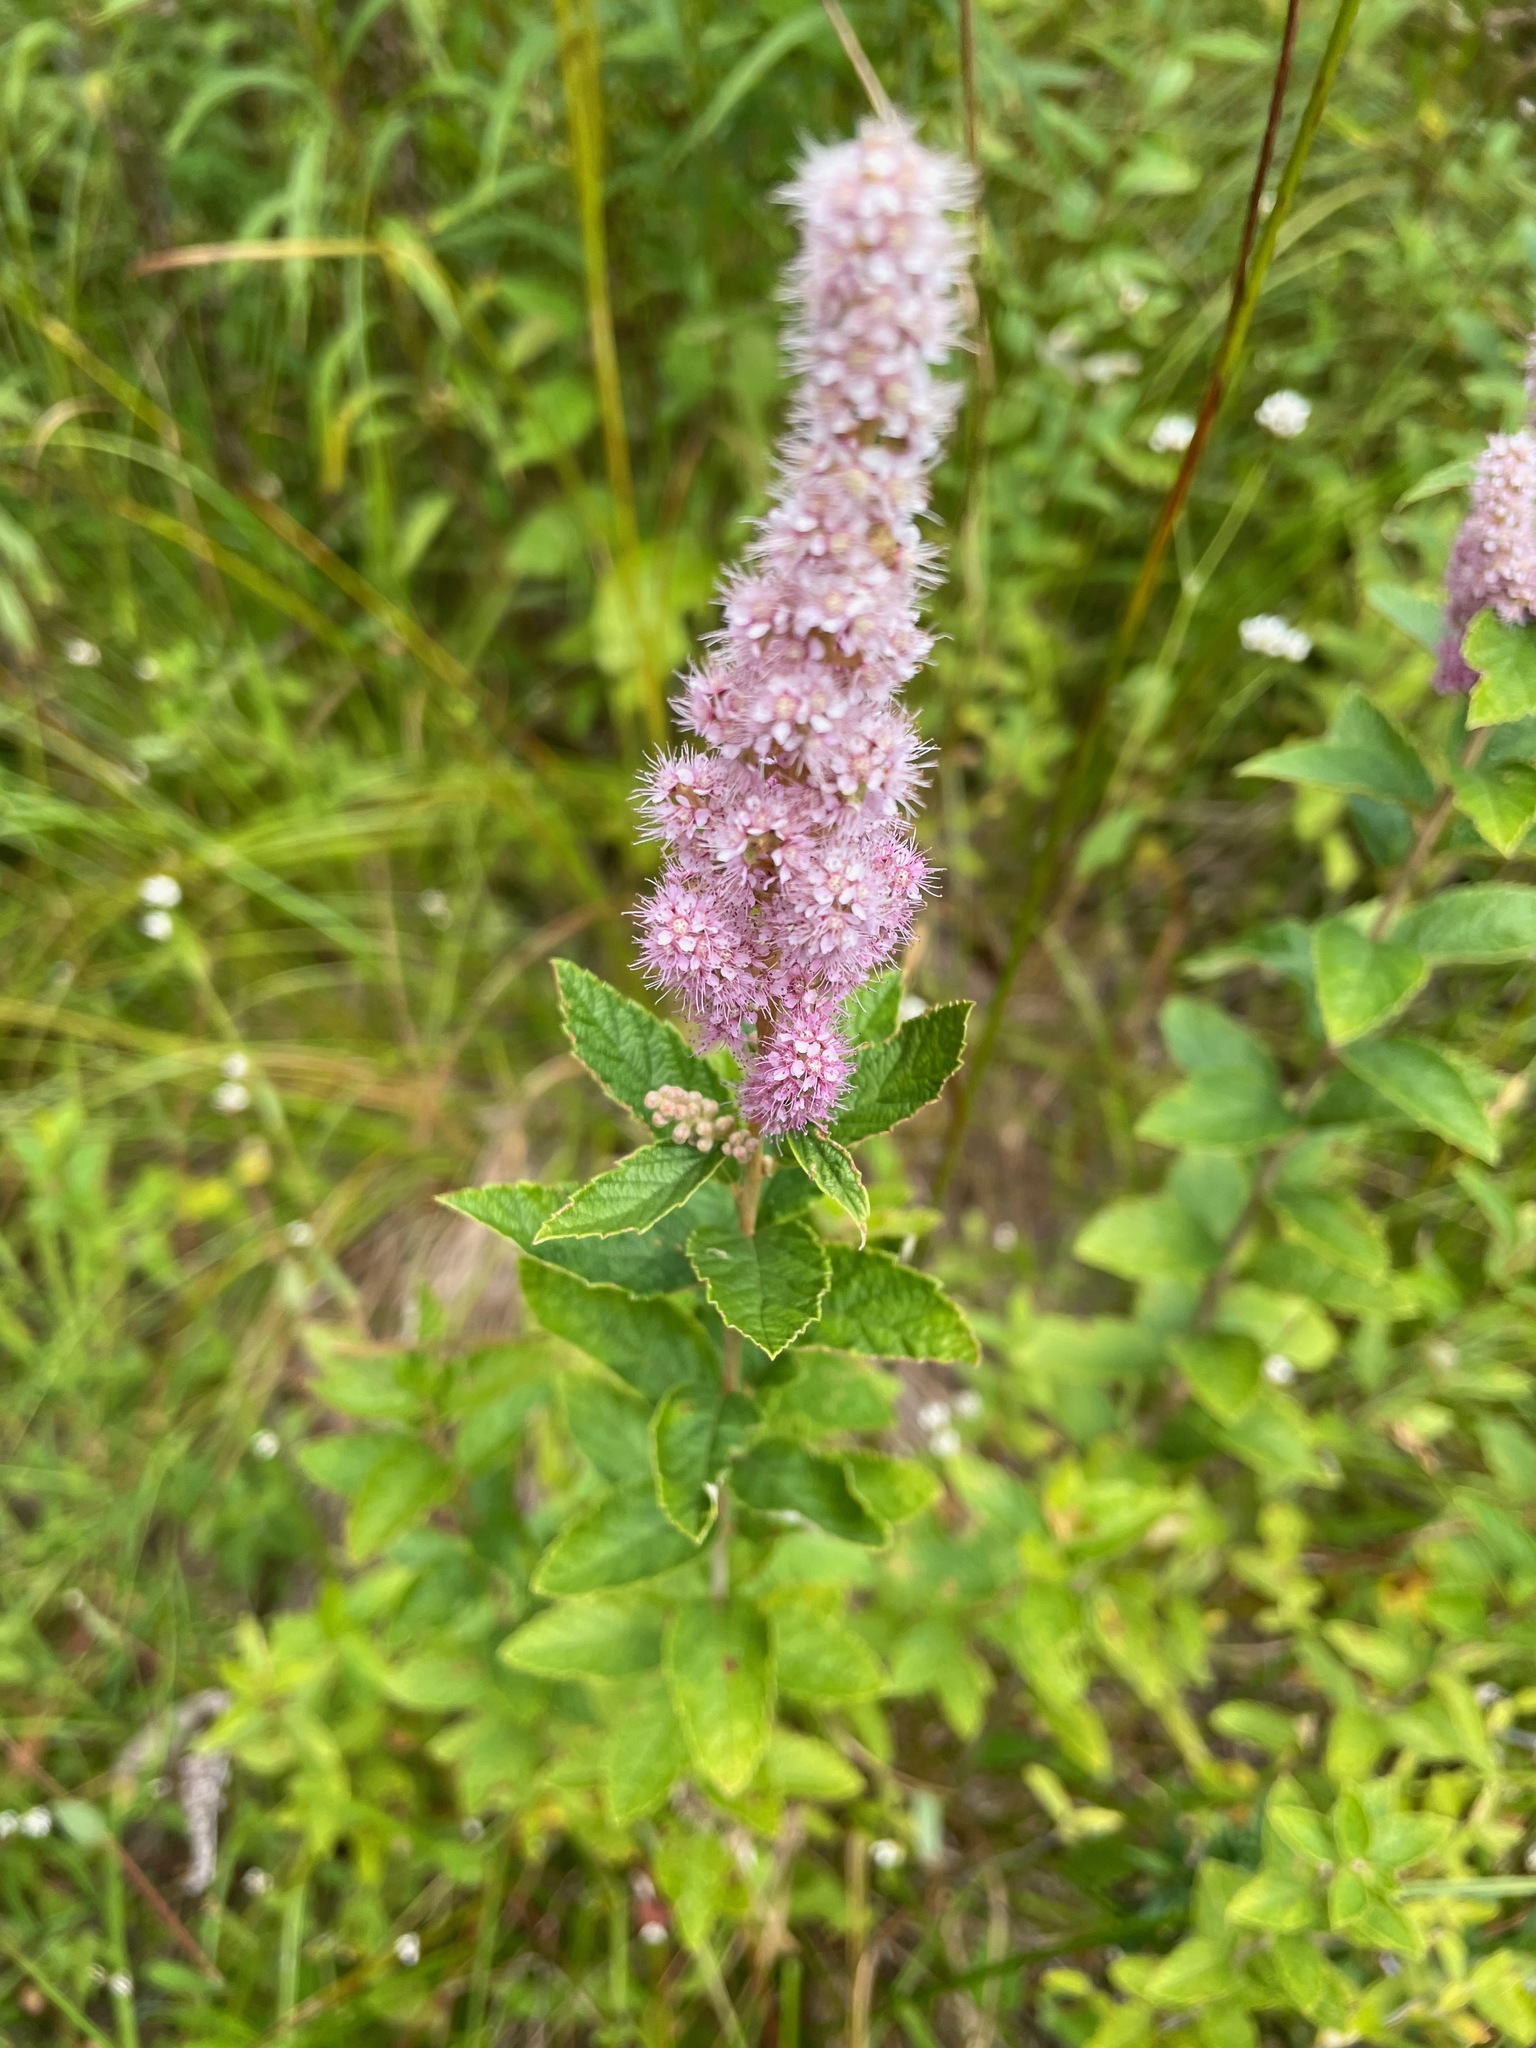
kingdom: Plantae
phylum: Tracheophyta
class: Magnoliopsida
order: Rosales
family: Rosaceae
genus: Spiraea
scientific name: Spiraea tomentosa
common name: Hardhack
